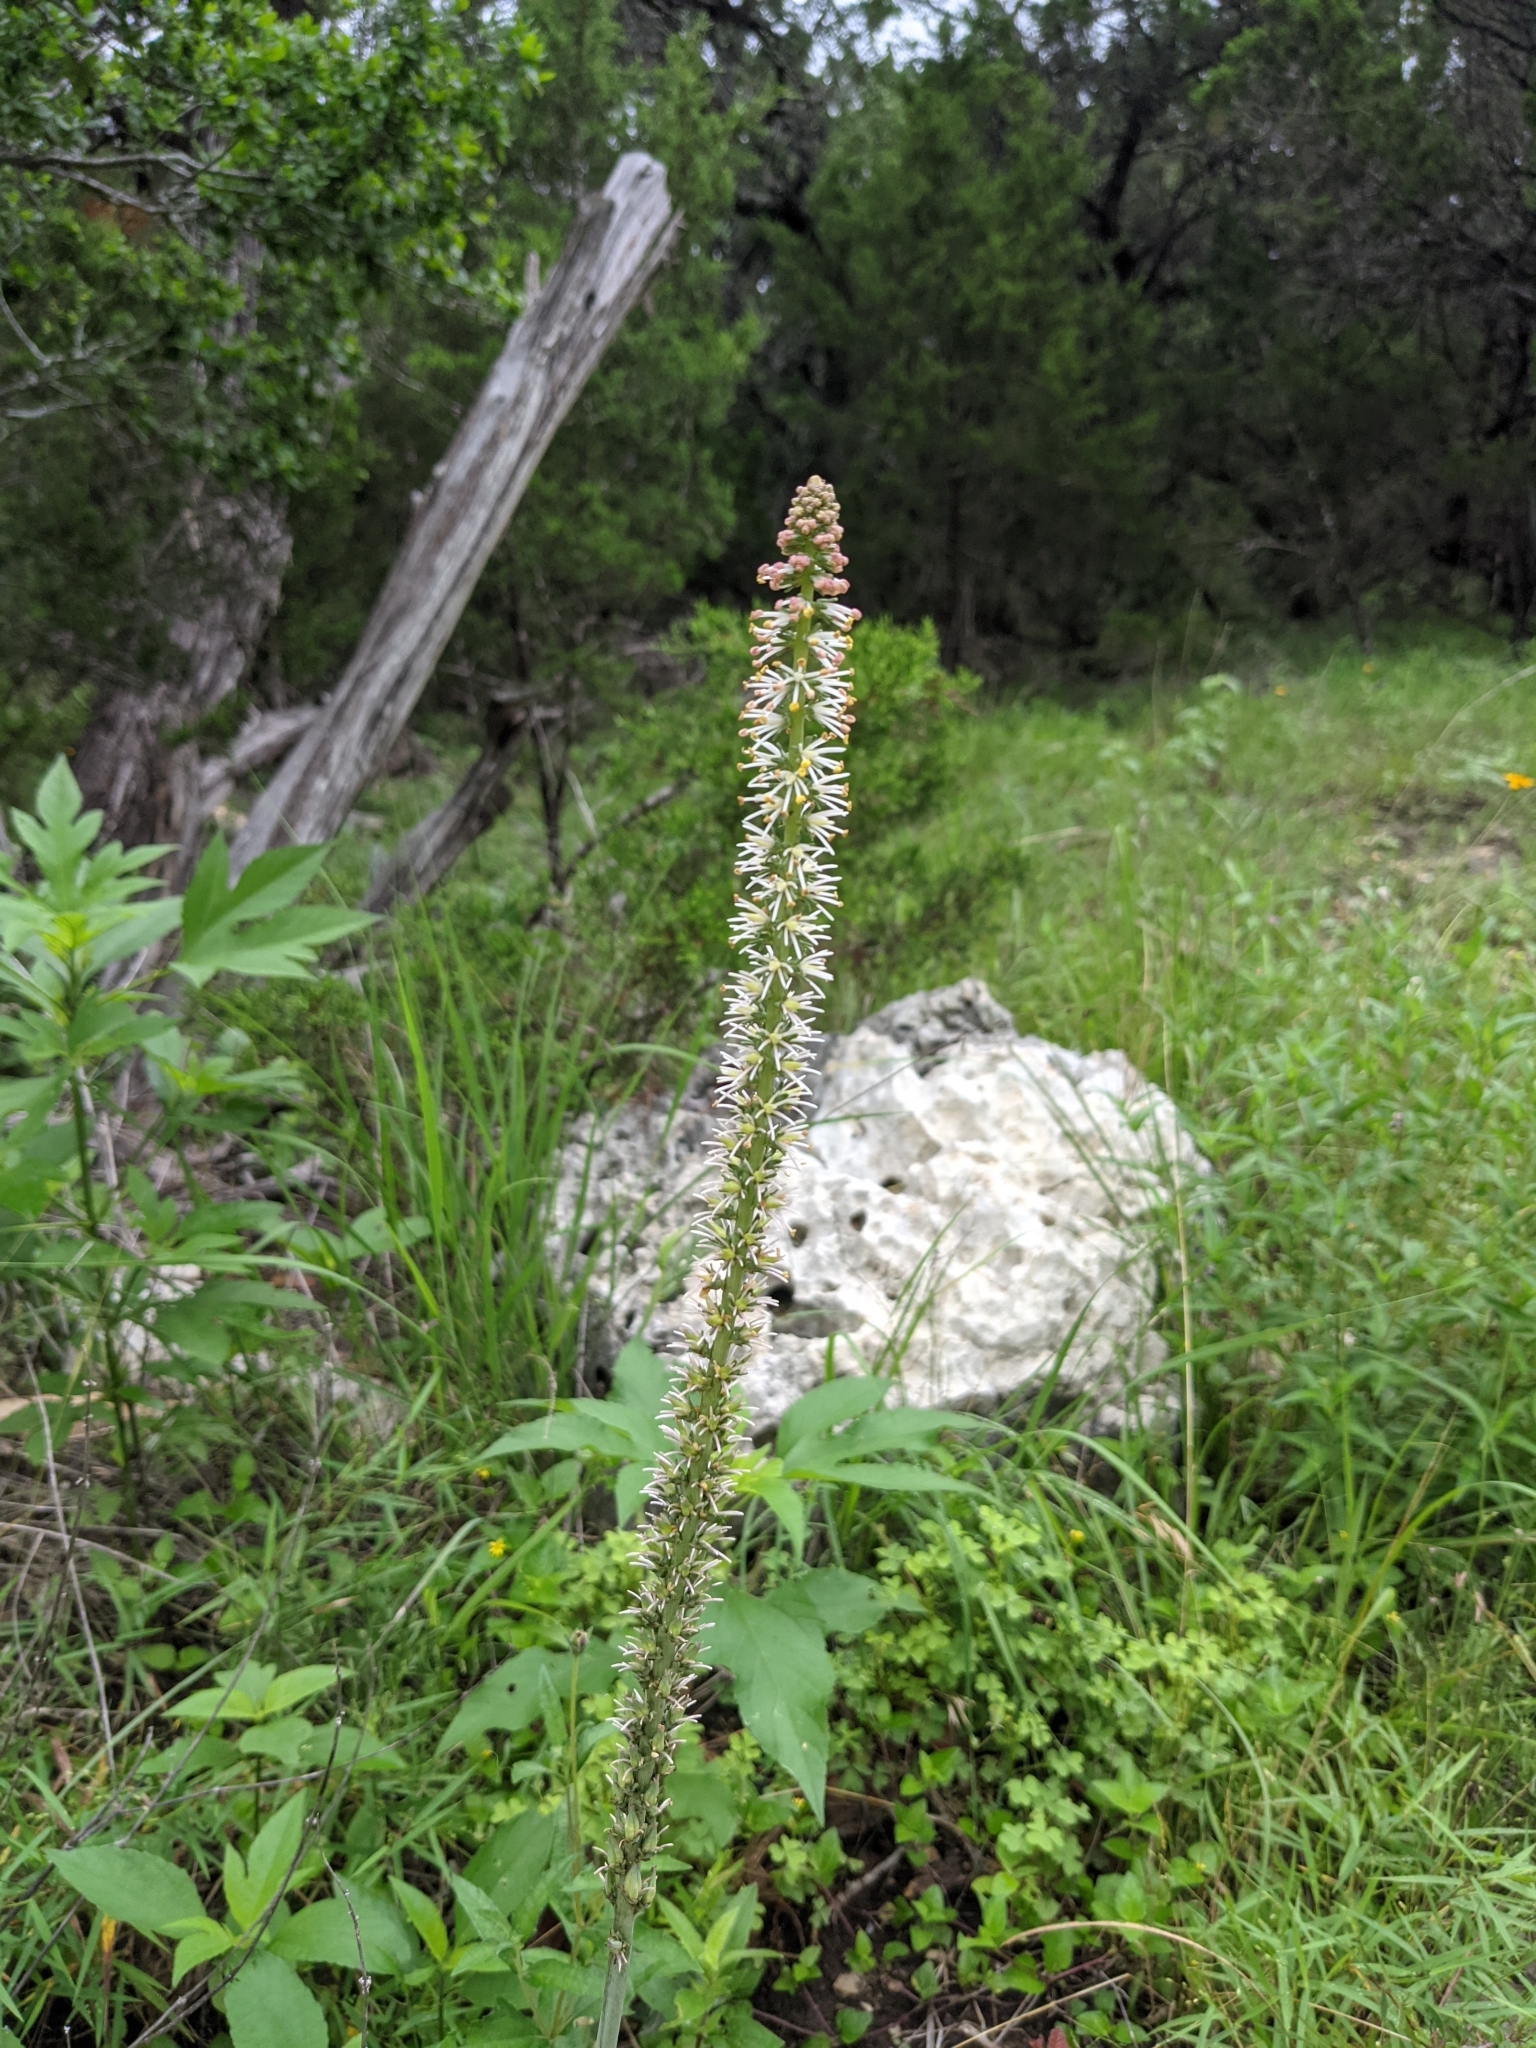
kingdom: Plantae
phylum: Tracheophyta
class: Liliopsida
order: Liliales
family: Melanthiaceae
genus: Schoenocaulon
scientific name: Schoenocaulon texanum
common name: Texas feather-shank
